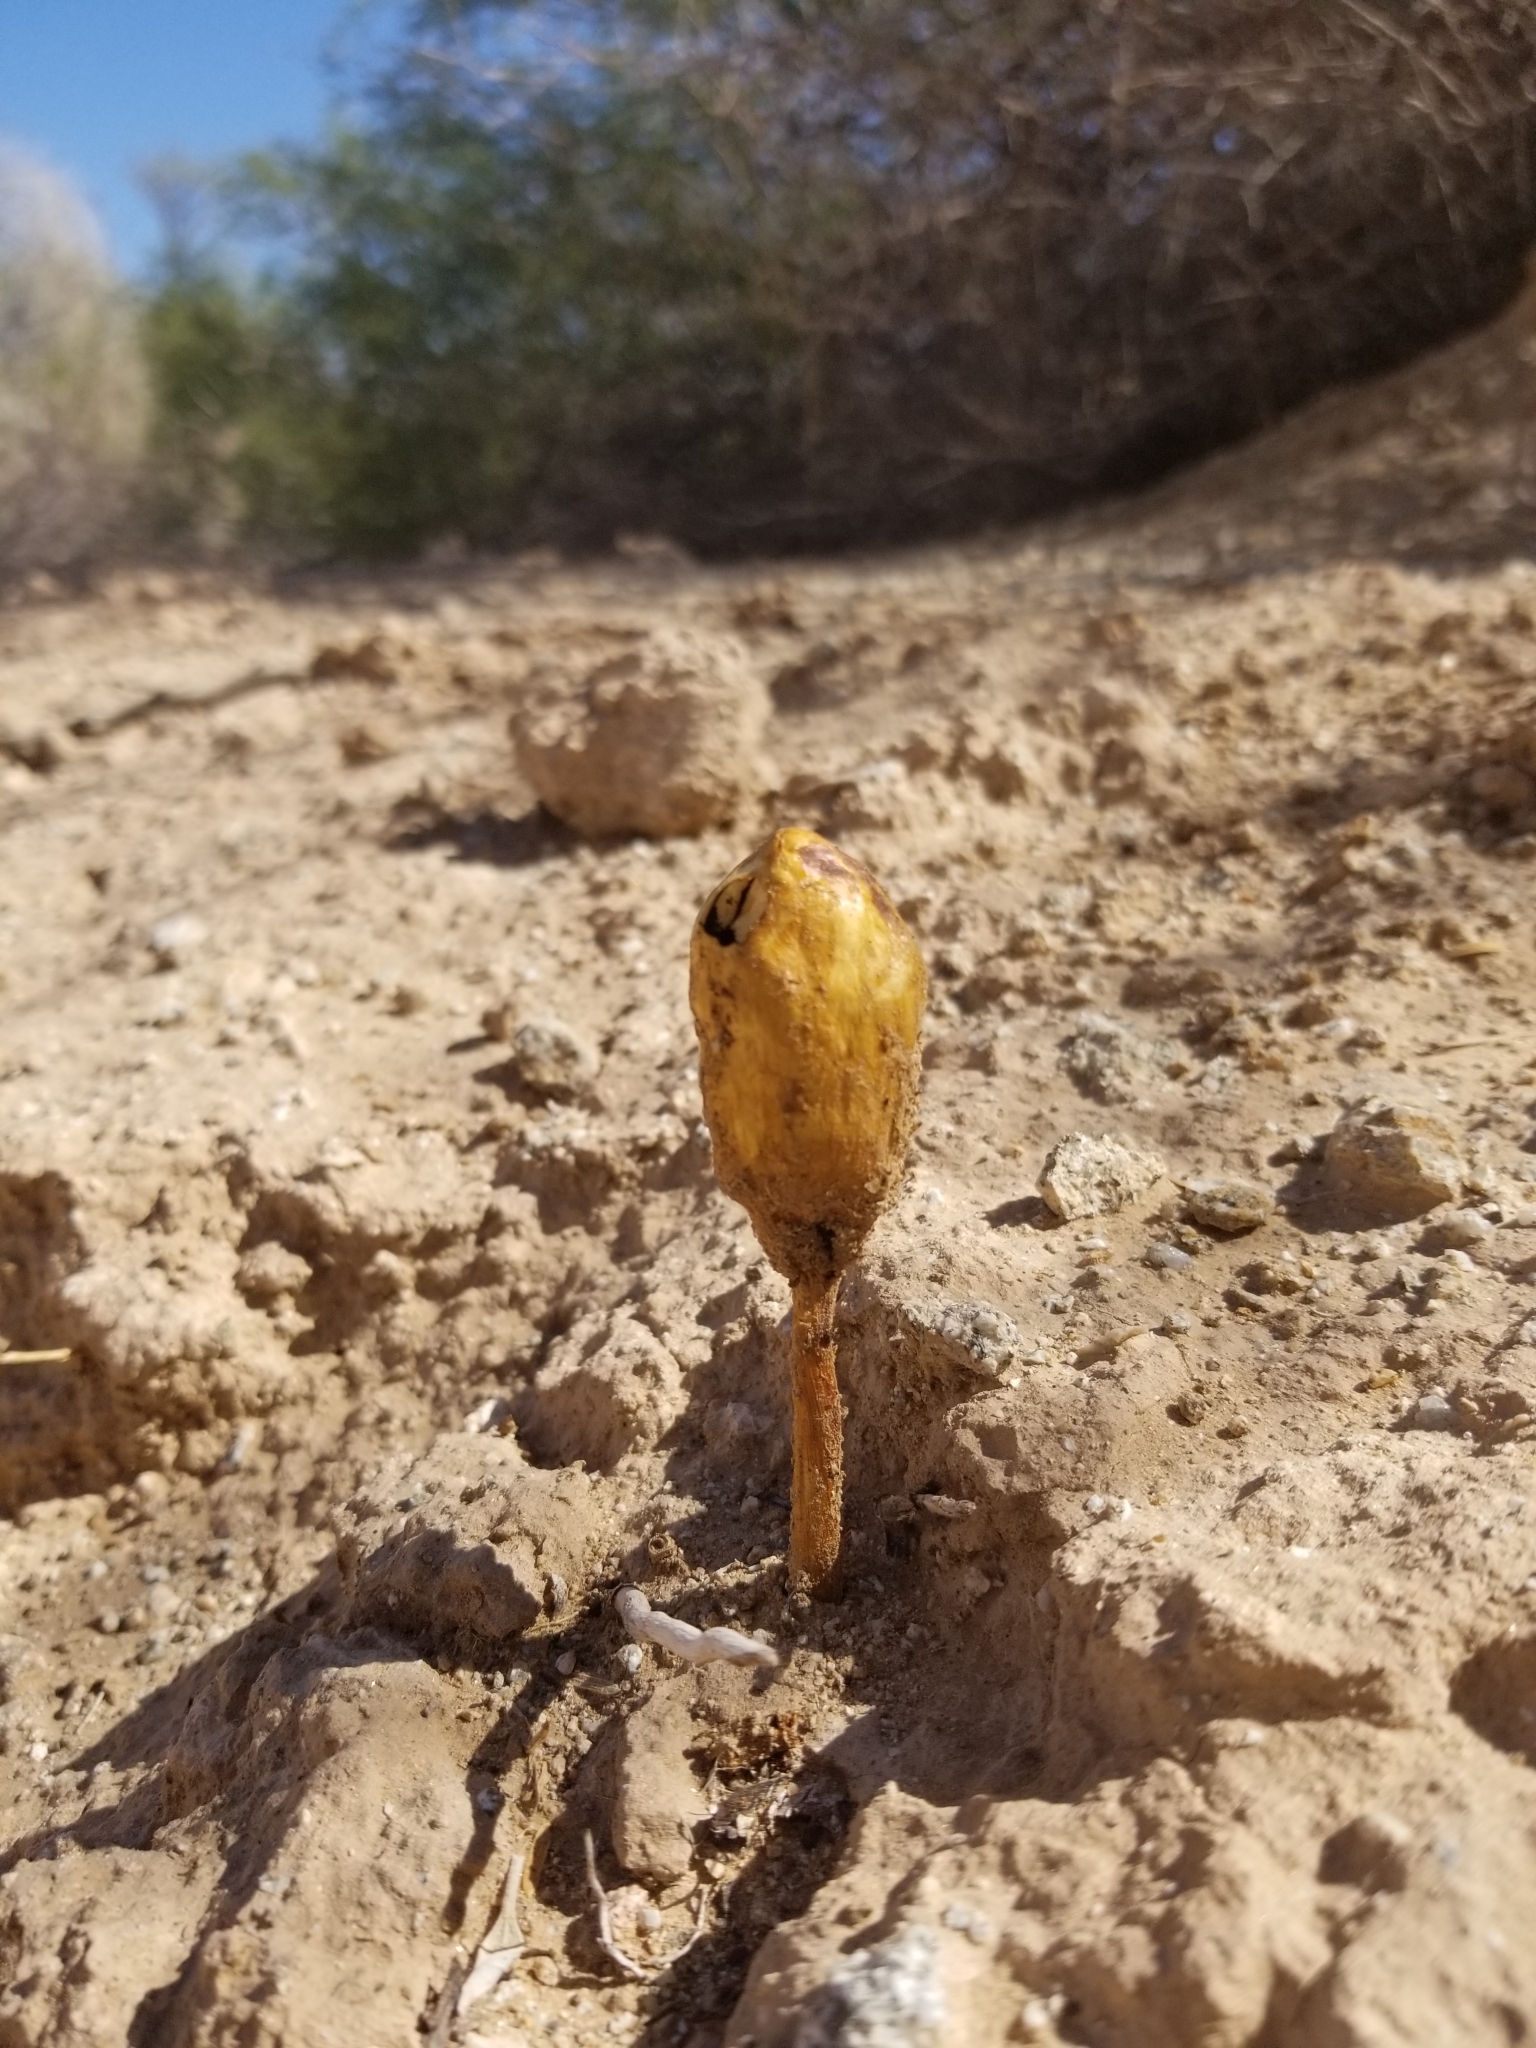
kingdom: Fungi
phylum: Basidiomycota
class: Agaricomycetes
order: Agaricales
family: Agaricaceae
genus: Podaxis
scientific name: Podaxis pistillaris
